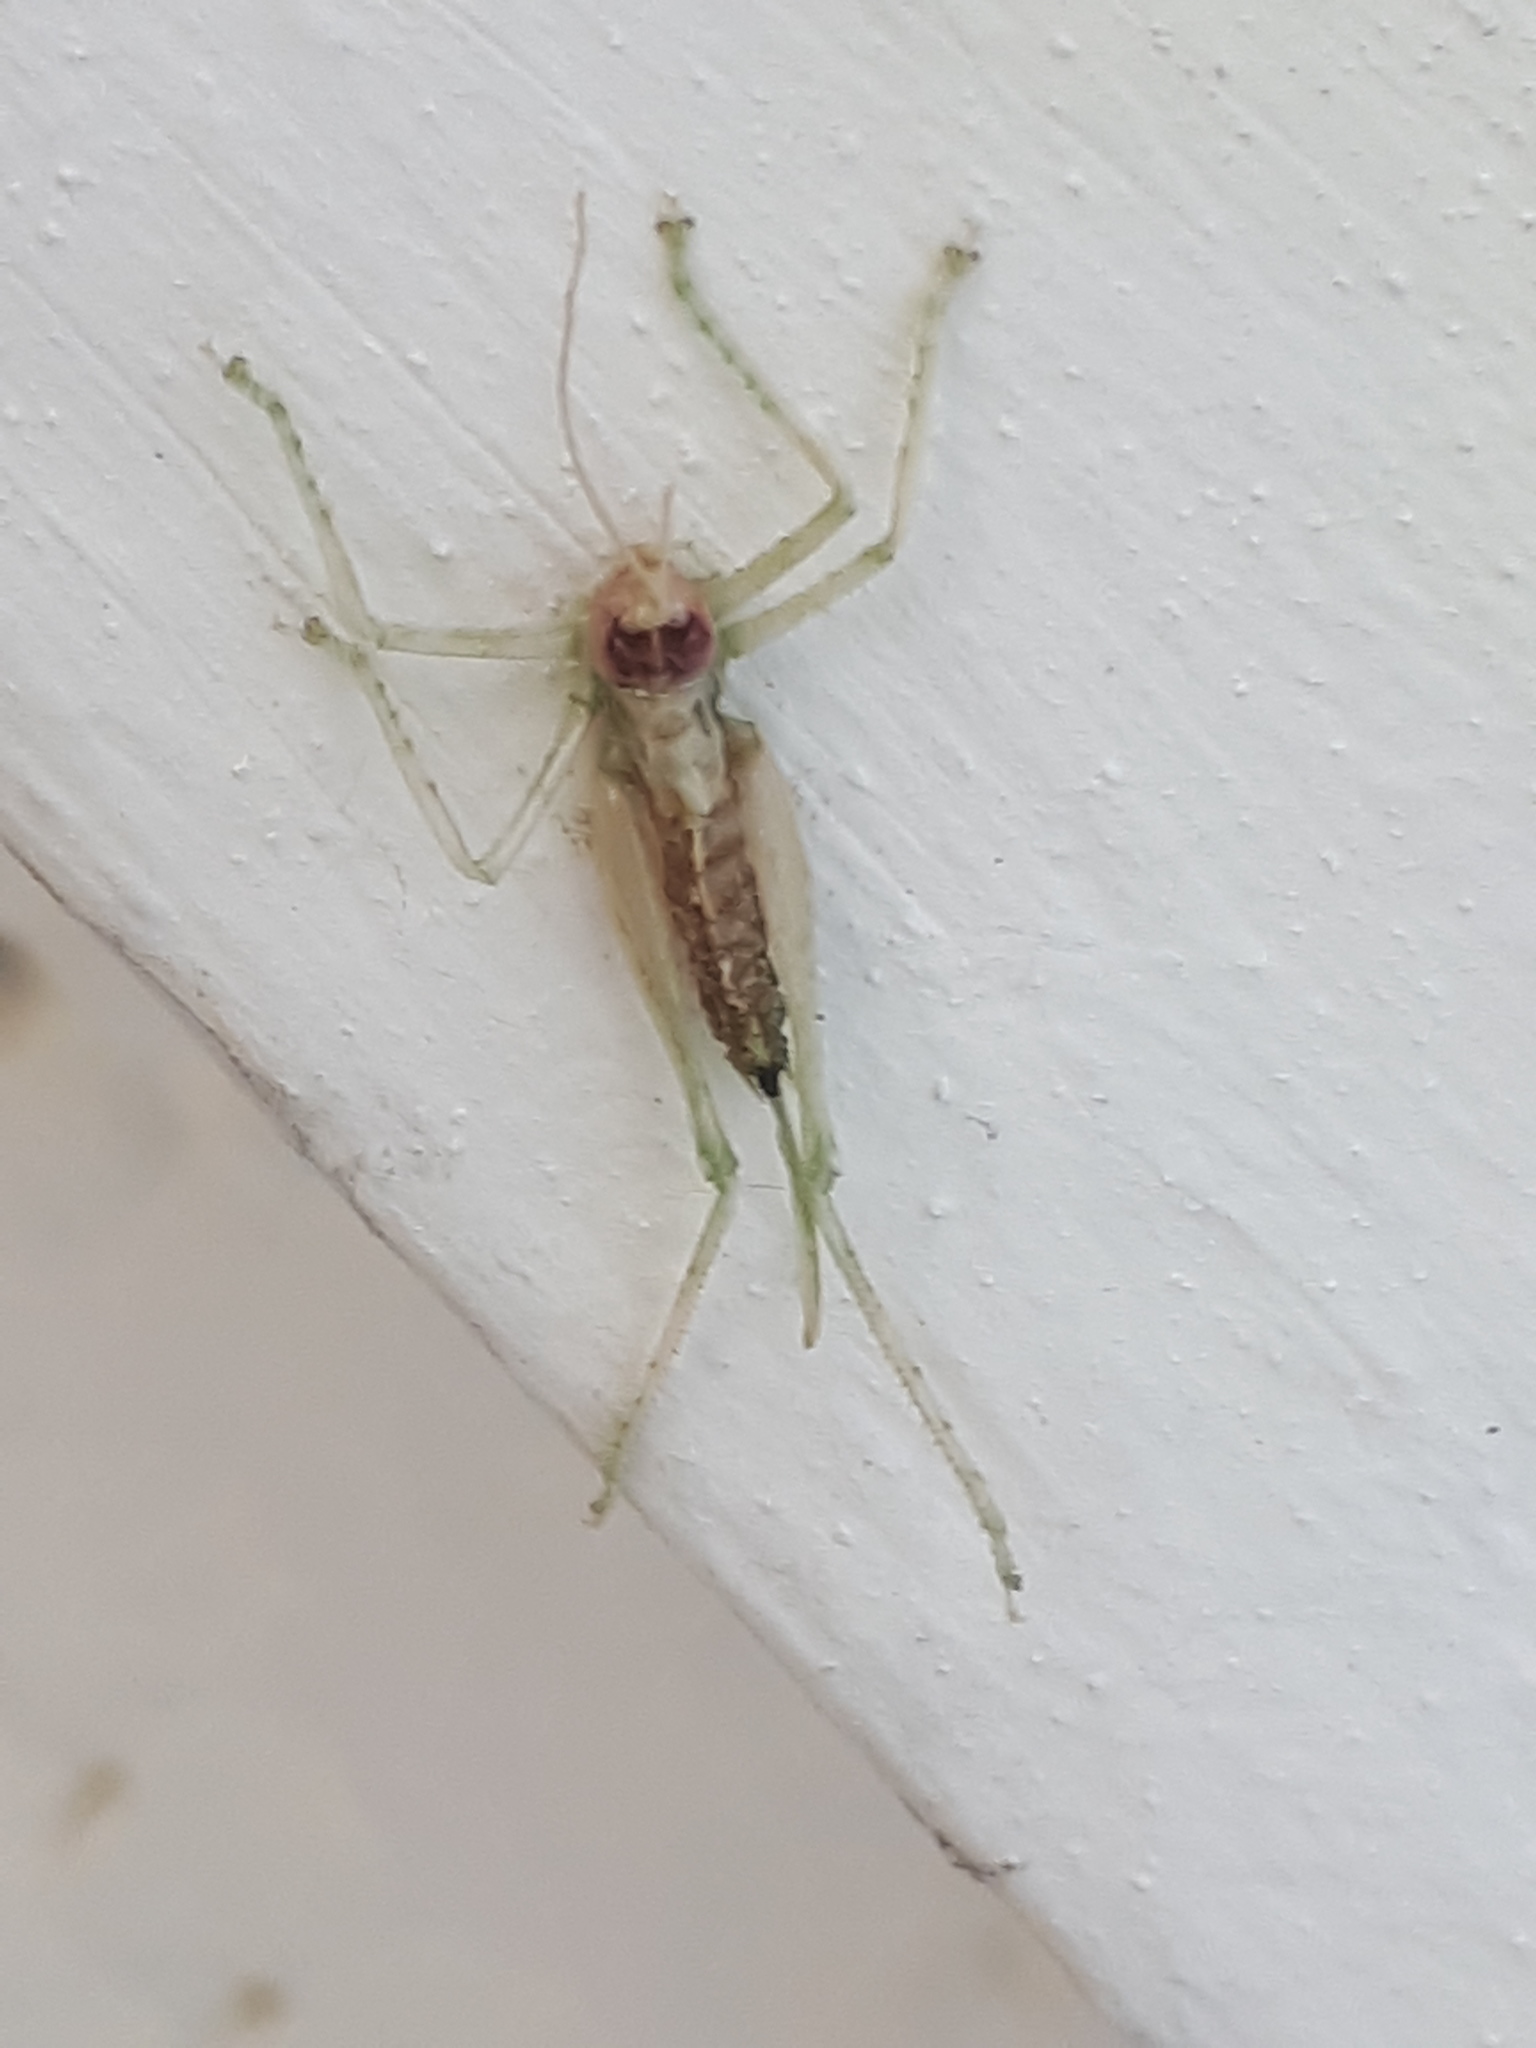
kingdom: Animalia
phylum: Arthropoda
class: Insecta
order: Orthoptera
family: Tettigoniidae
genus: Meconema
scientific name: Meconema meridionale
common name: Southern oak bush-cricket
